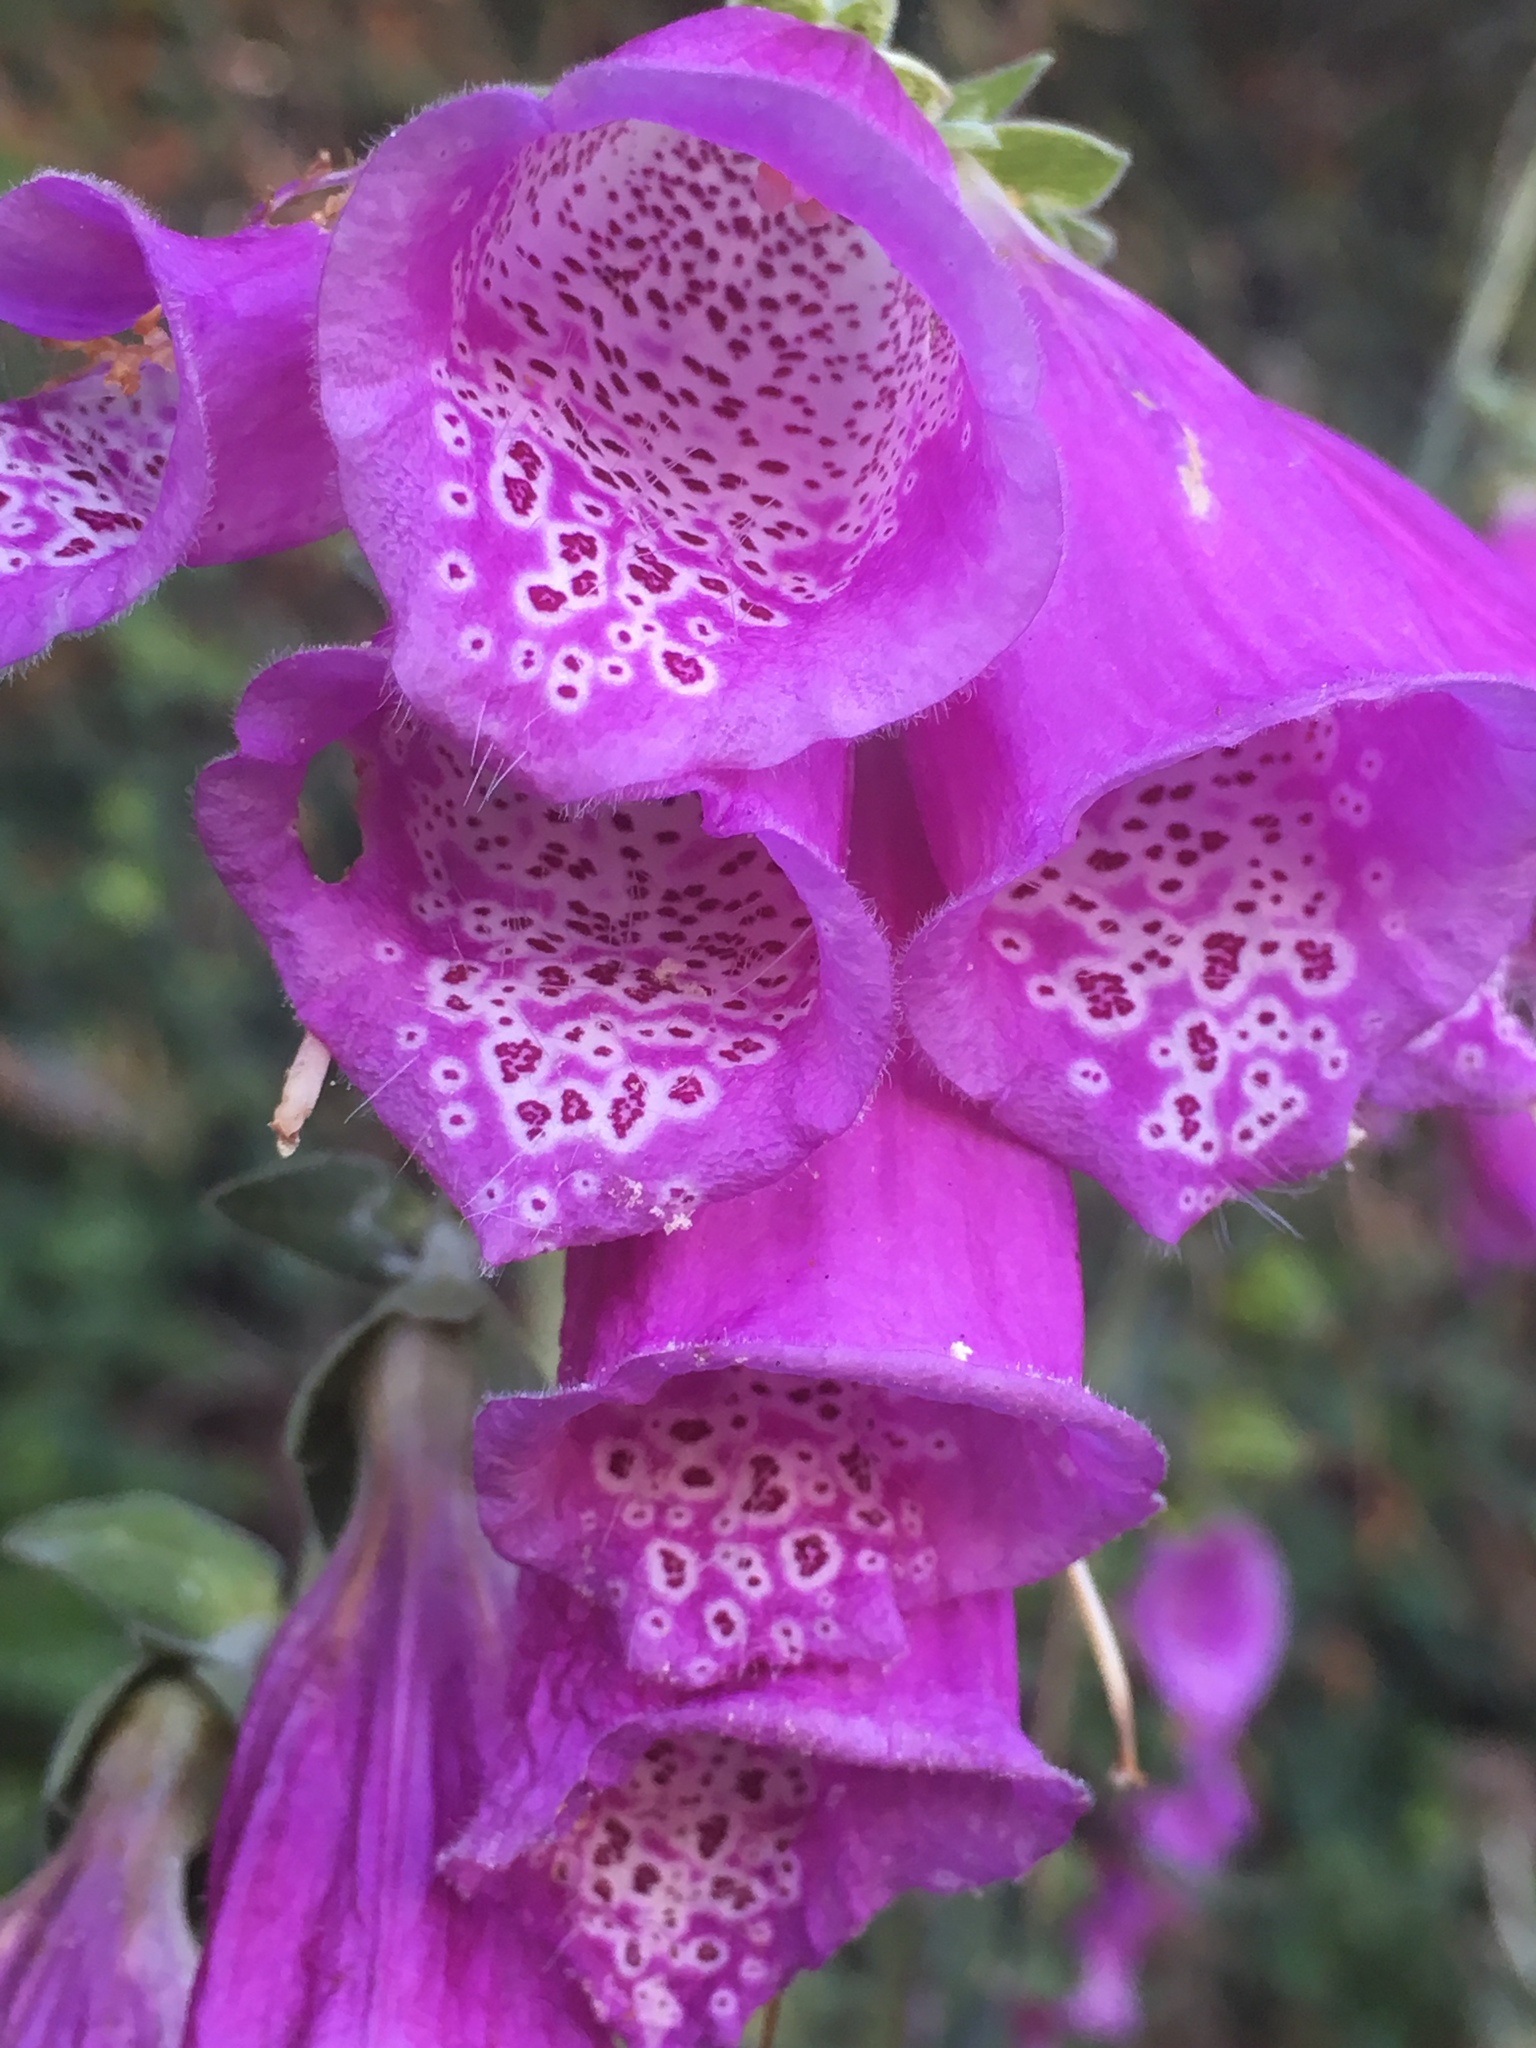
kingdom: Plantae
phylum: Tracheophyta
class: Magnoliopsida
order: Lamiales
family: Plantaginaceae
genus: Digitalis
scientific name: Digitalis purpurea
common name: Foxglove
